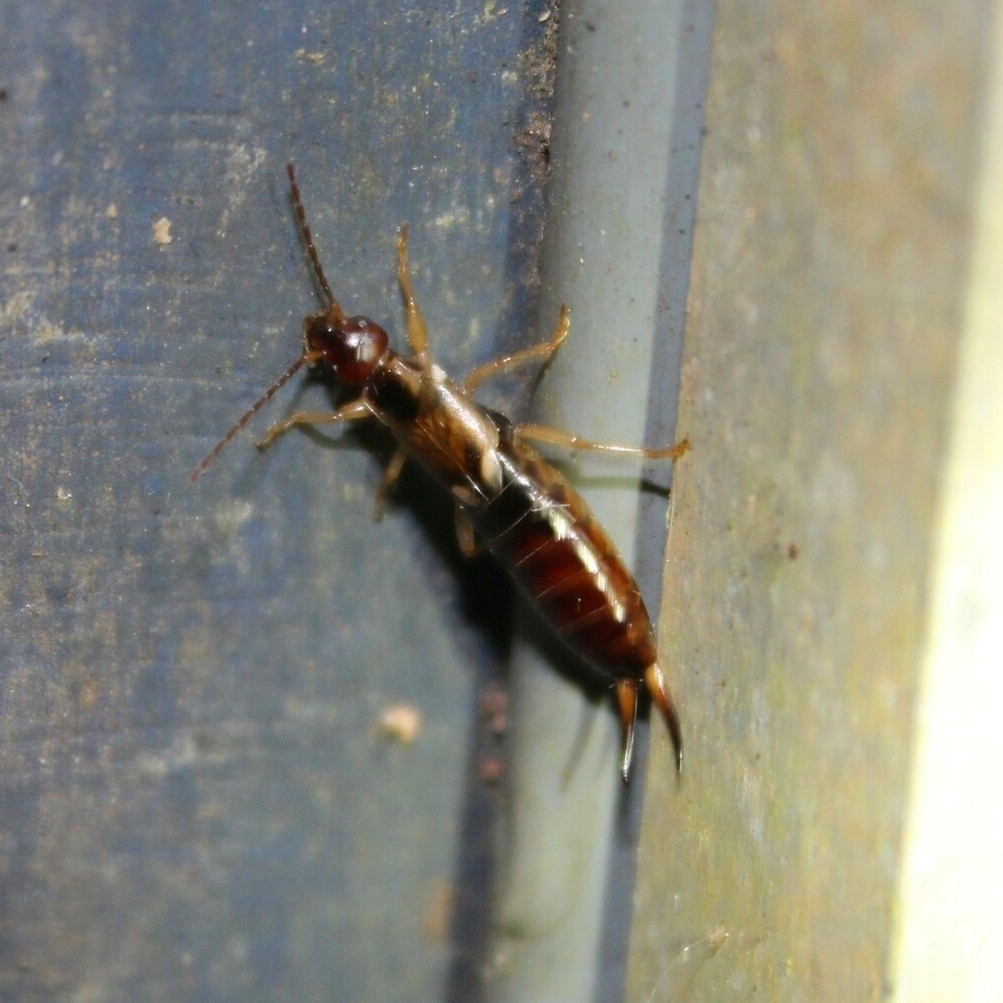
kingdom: Animalia
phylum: Arthropoda
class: Insecta
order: Dermaptera
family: Forficulidae
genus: Forficula
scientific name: Forficula
